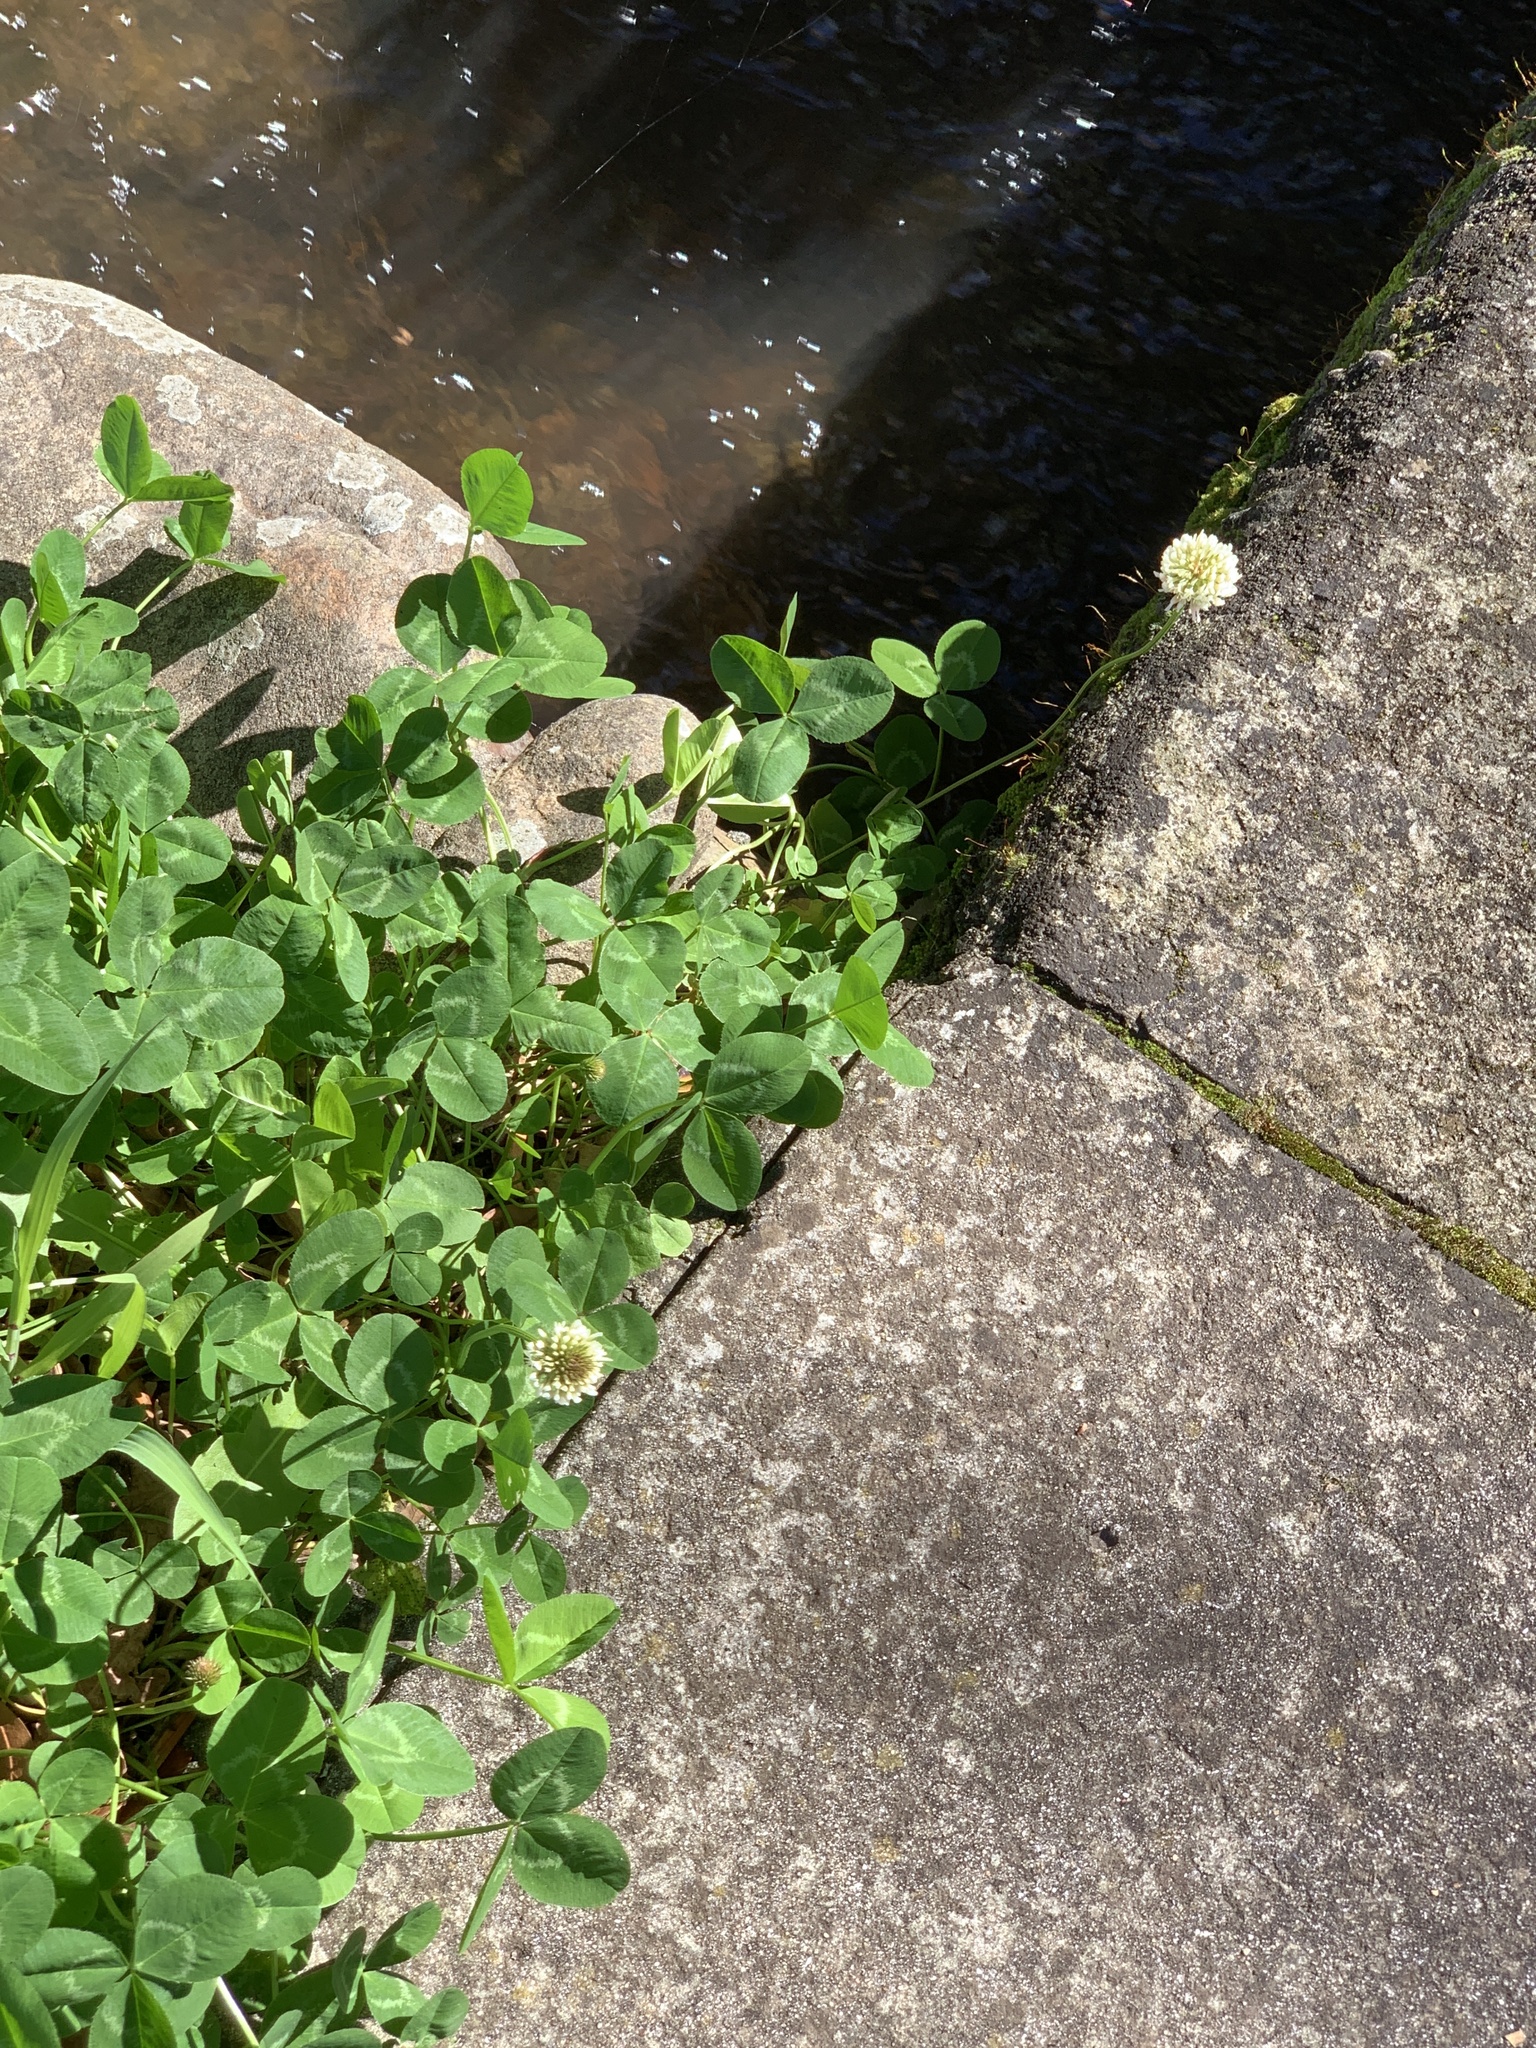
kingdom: Plantae
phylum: Tracheophyta
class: Magnoliopsida
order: Fabales
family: Fabaceae
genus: Trifolium
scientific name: Trifolium repens
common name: White clover
